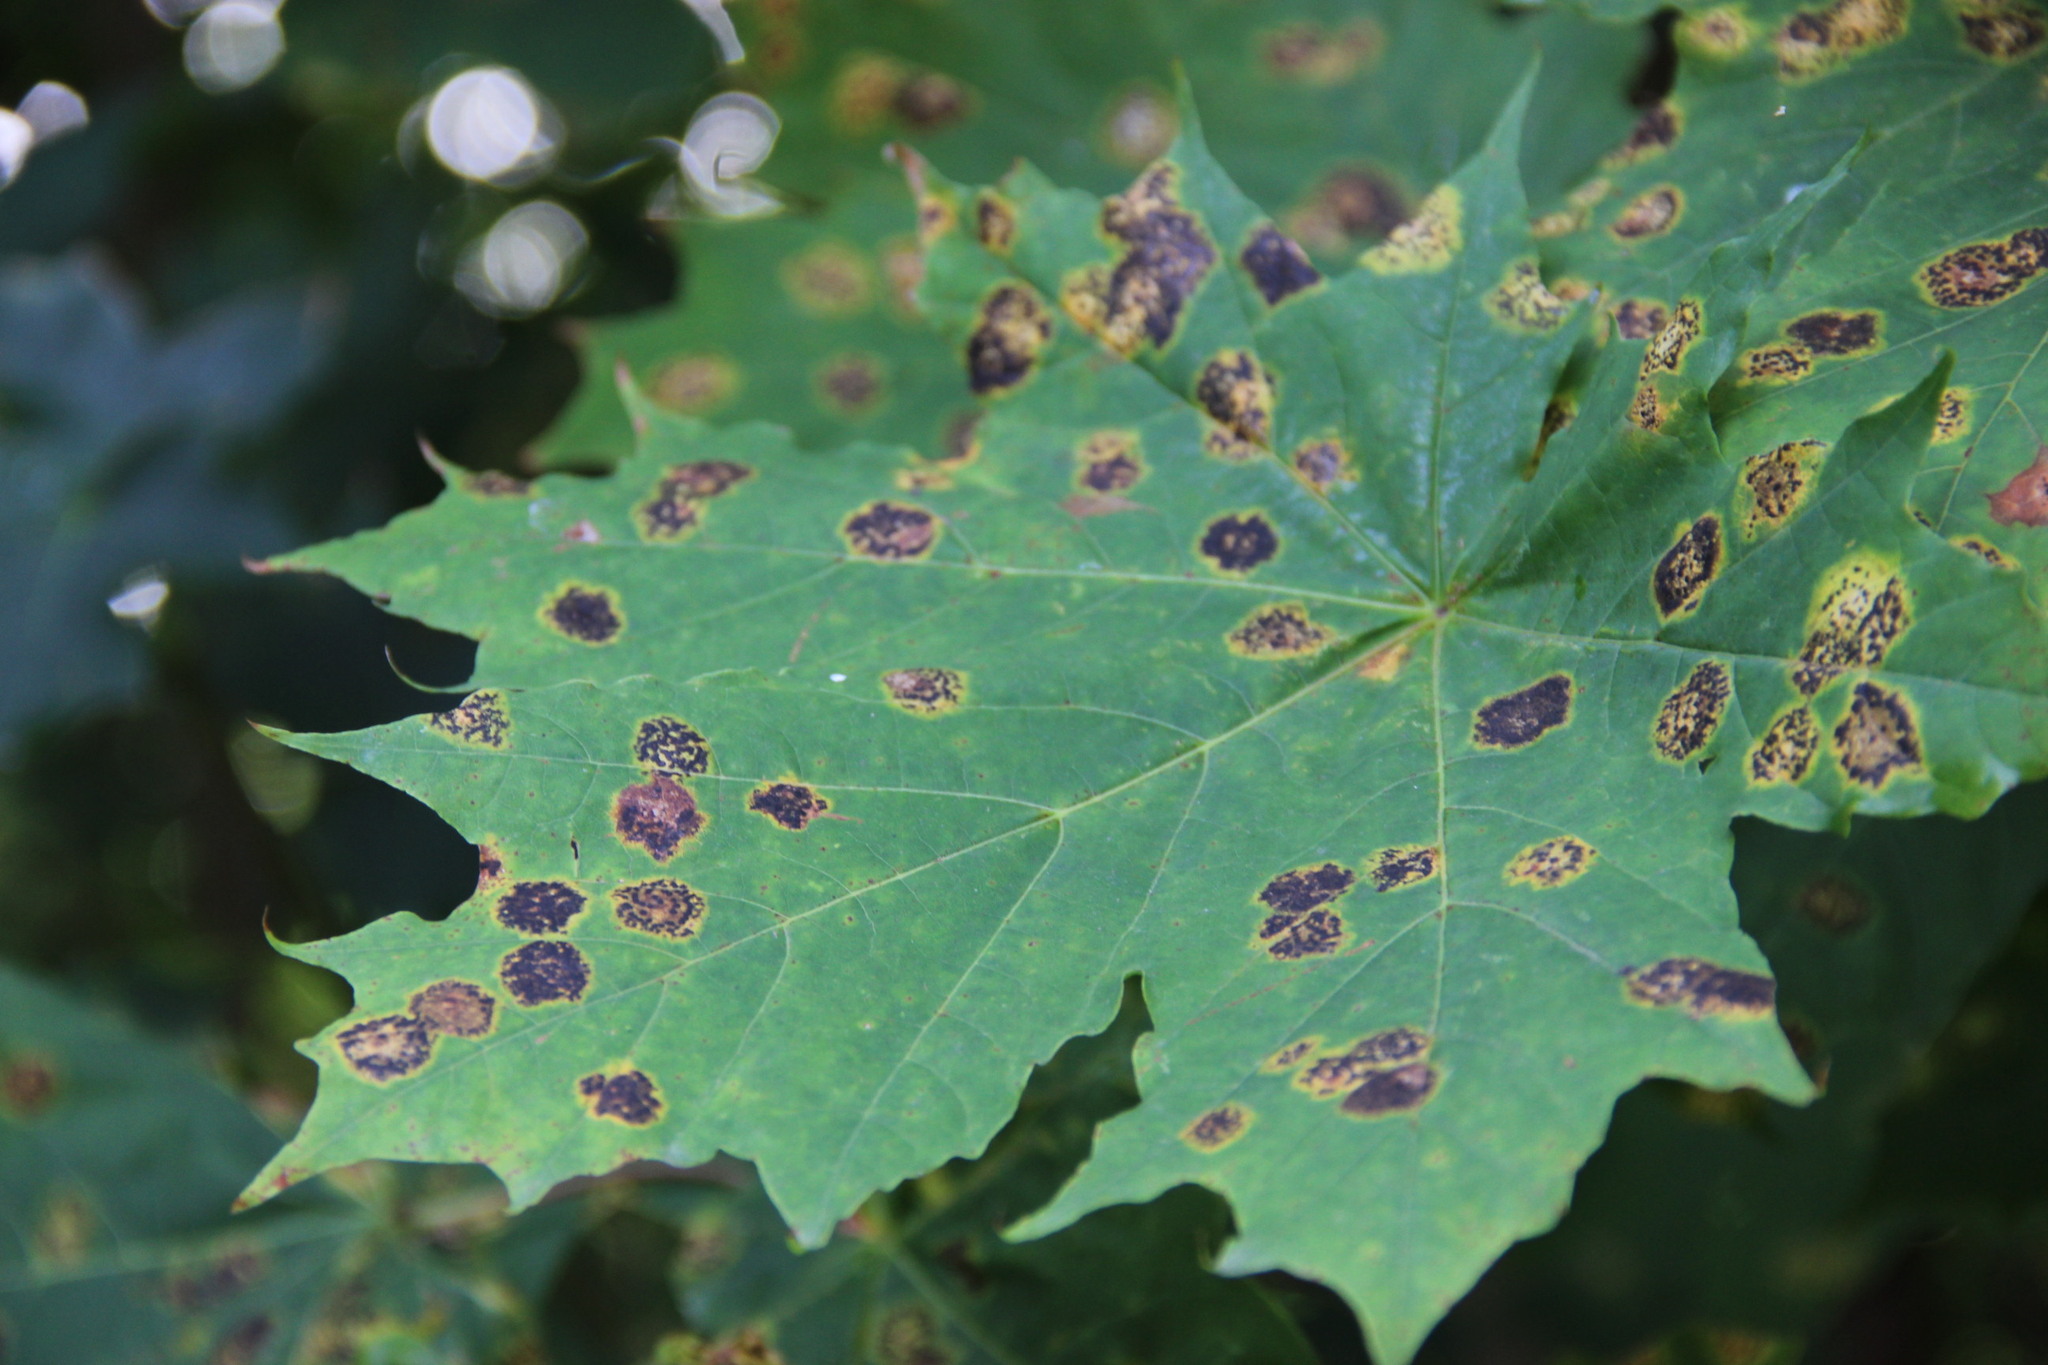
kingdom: Fungi
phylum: Ascomycota
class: Leotiomycetes
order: Rhytismatales
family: Rhytismataceae
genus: Rhytisma
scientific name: Rhytisma acerinum
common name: European tar spot
